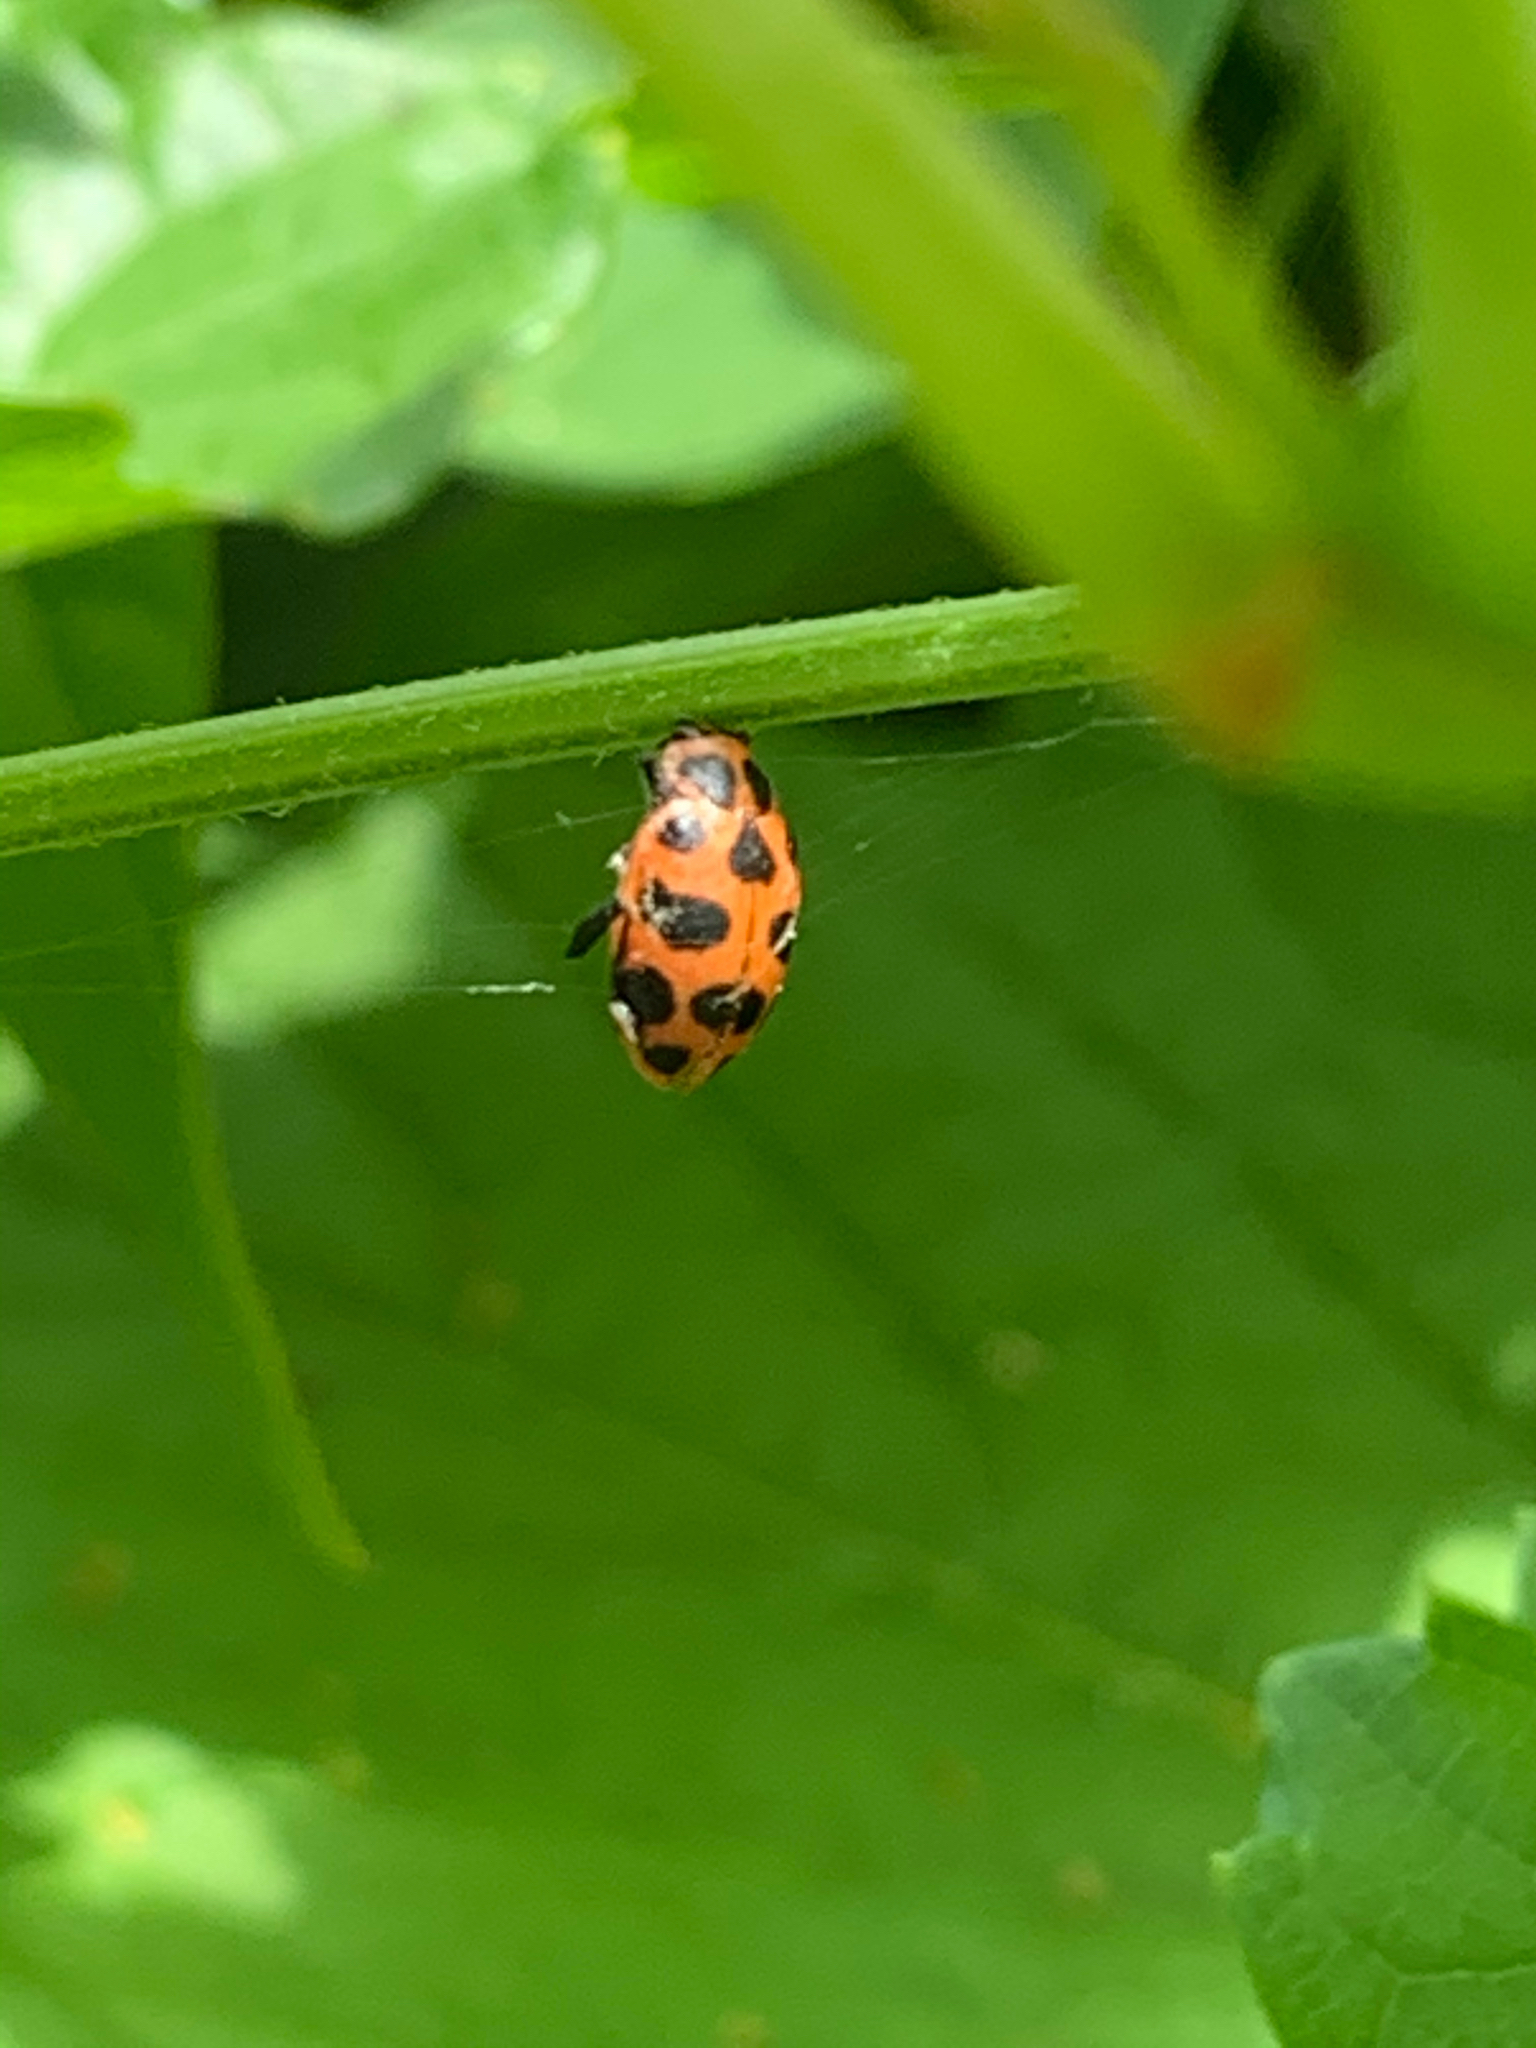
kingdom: Animalia
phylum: Arthropoda
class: Insecta
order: Coleoptera
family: Coccinellidae
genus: Coleomegilla
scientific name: Coleomegilla maculata
